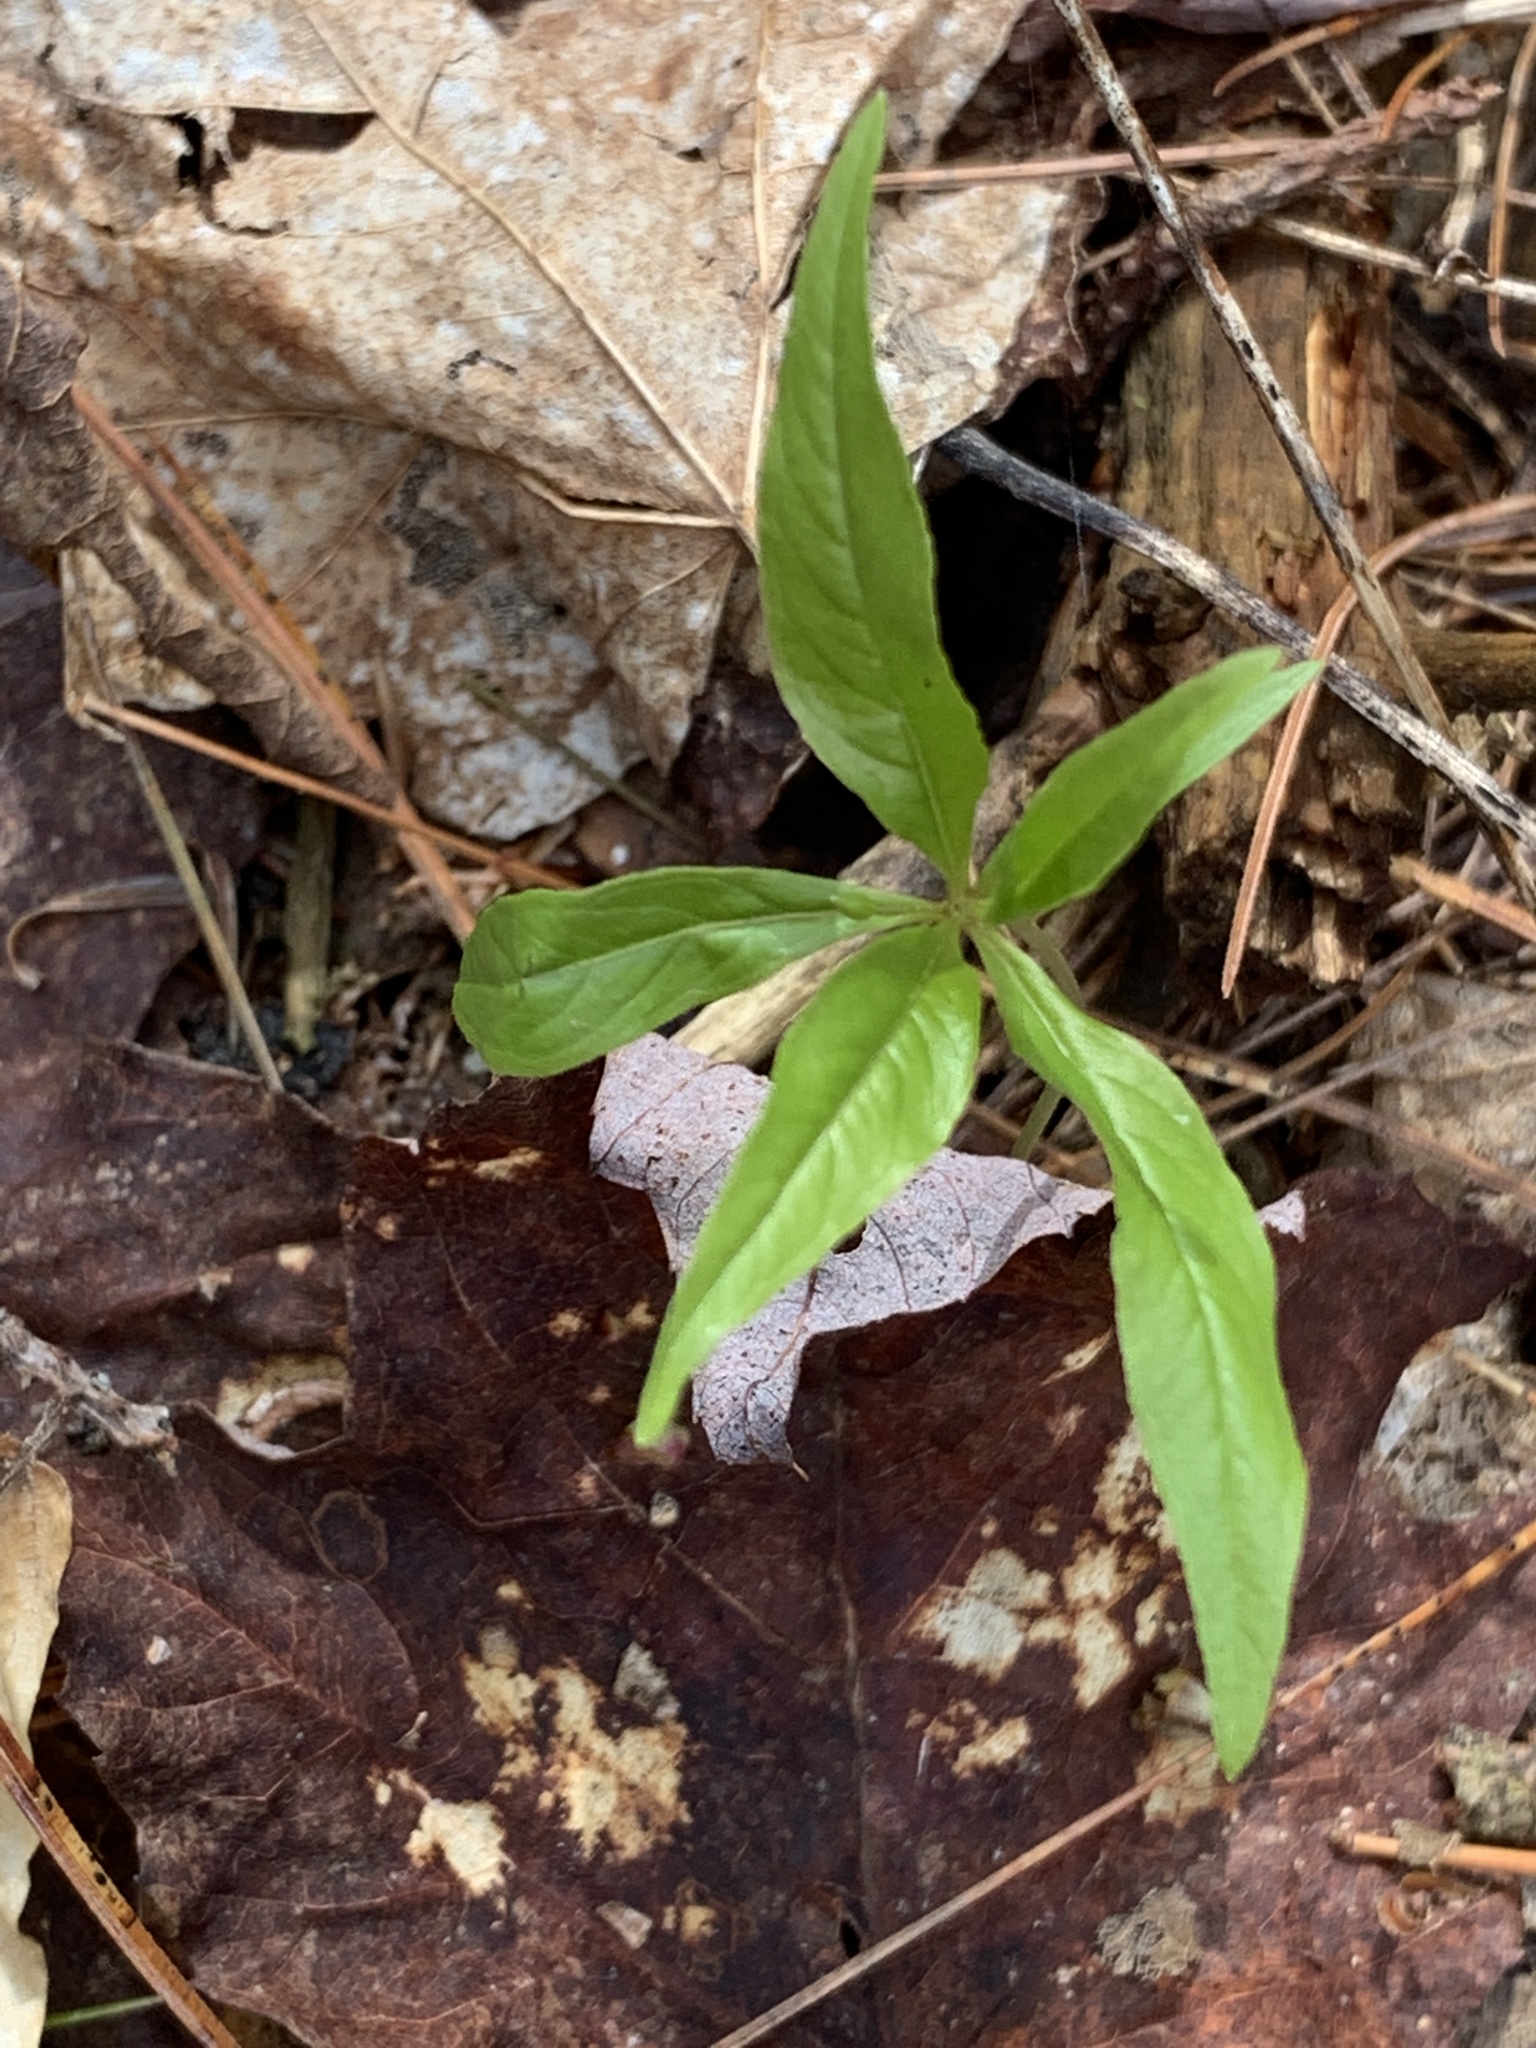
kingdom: Plantae
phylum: Tracheophyta
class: Magnoliopsida
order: Ericales
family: Primulaceae
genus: Lysimachia
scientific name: Lysimachia borealis
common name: American starflower
